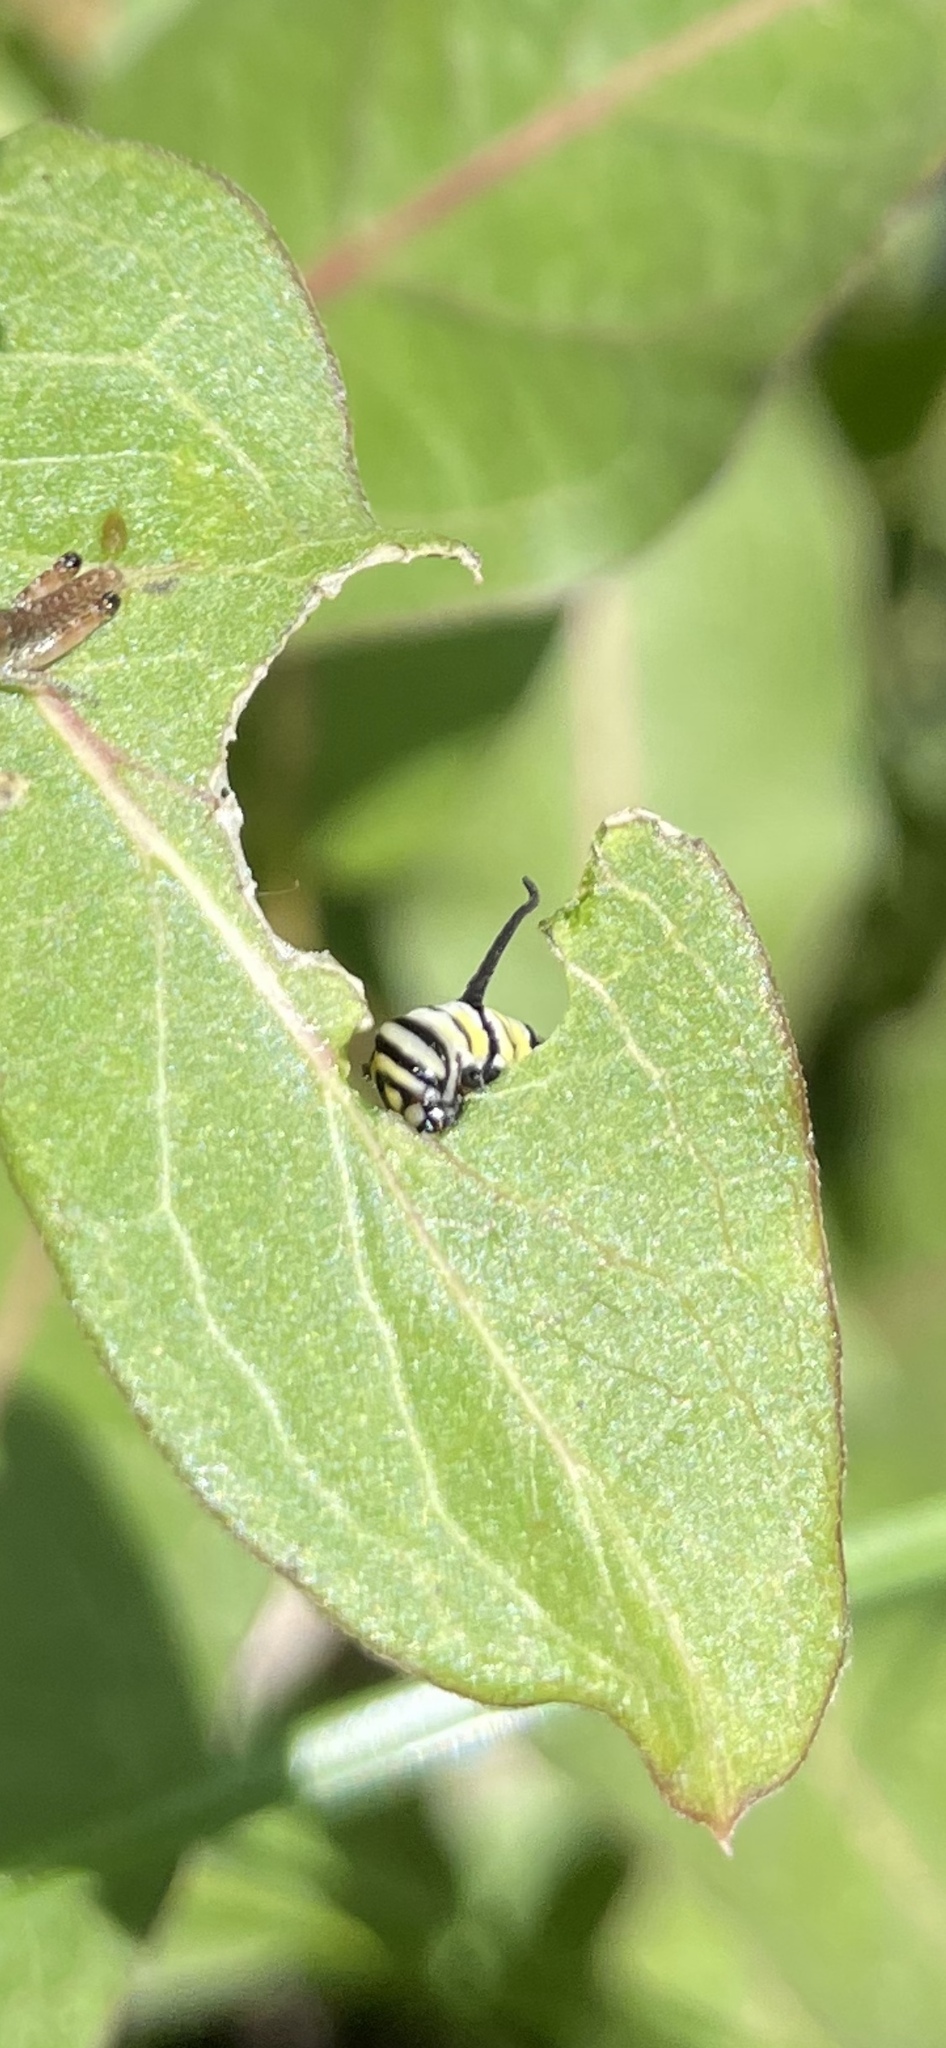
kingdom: Animalia
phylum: Arthropoda
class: Insecta
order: Lepidoptera
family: Nymphalidae
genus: Danaus
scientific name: Danaus plexippus
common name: Monarch
